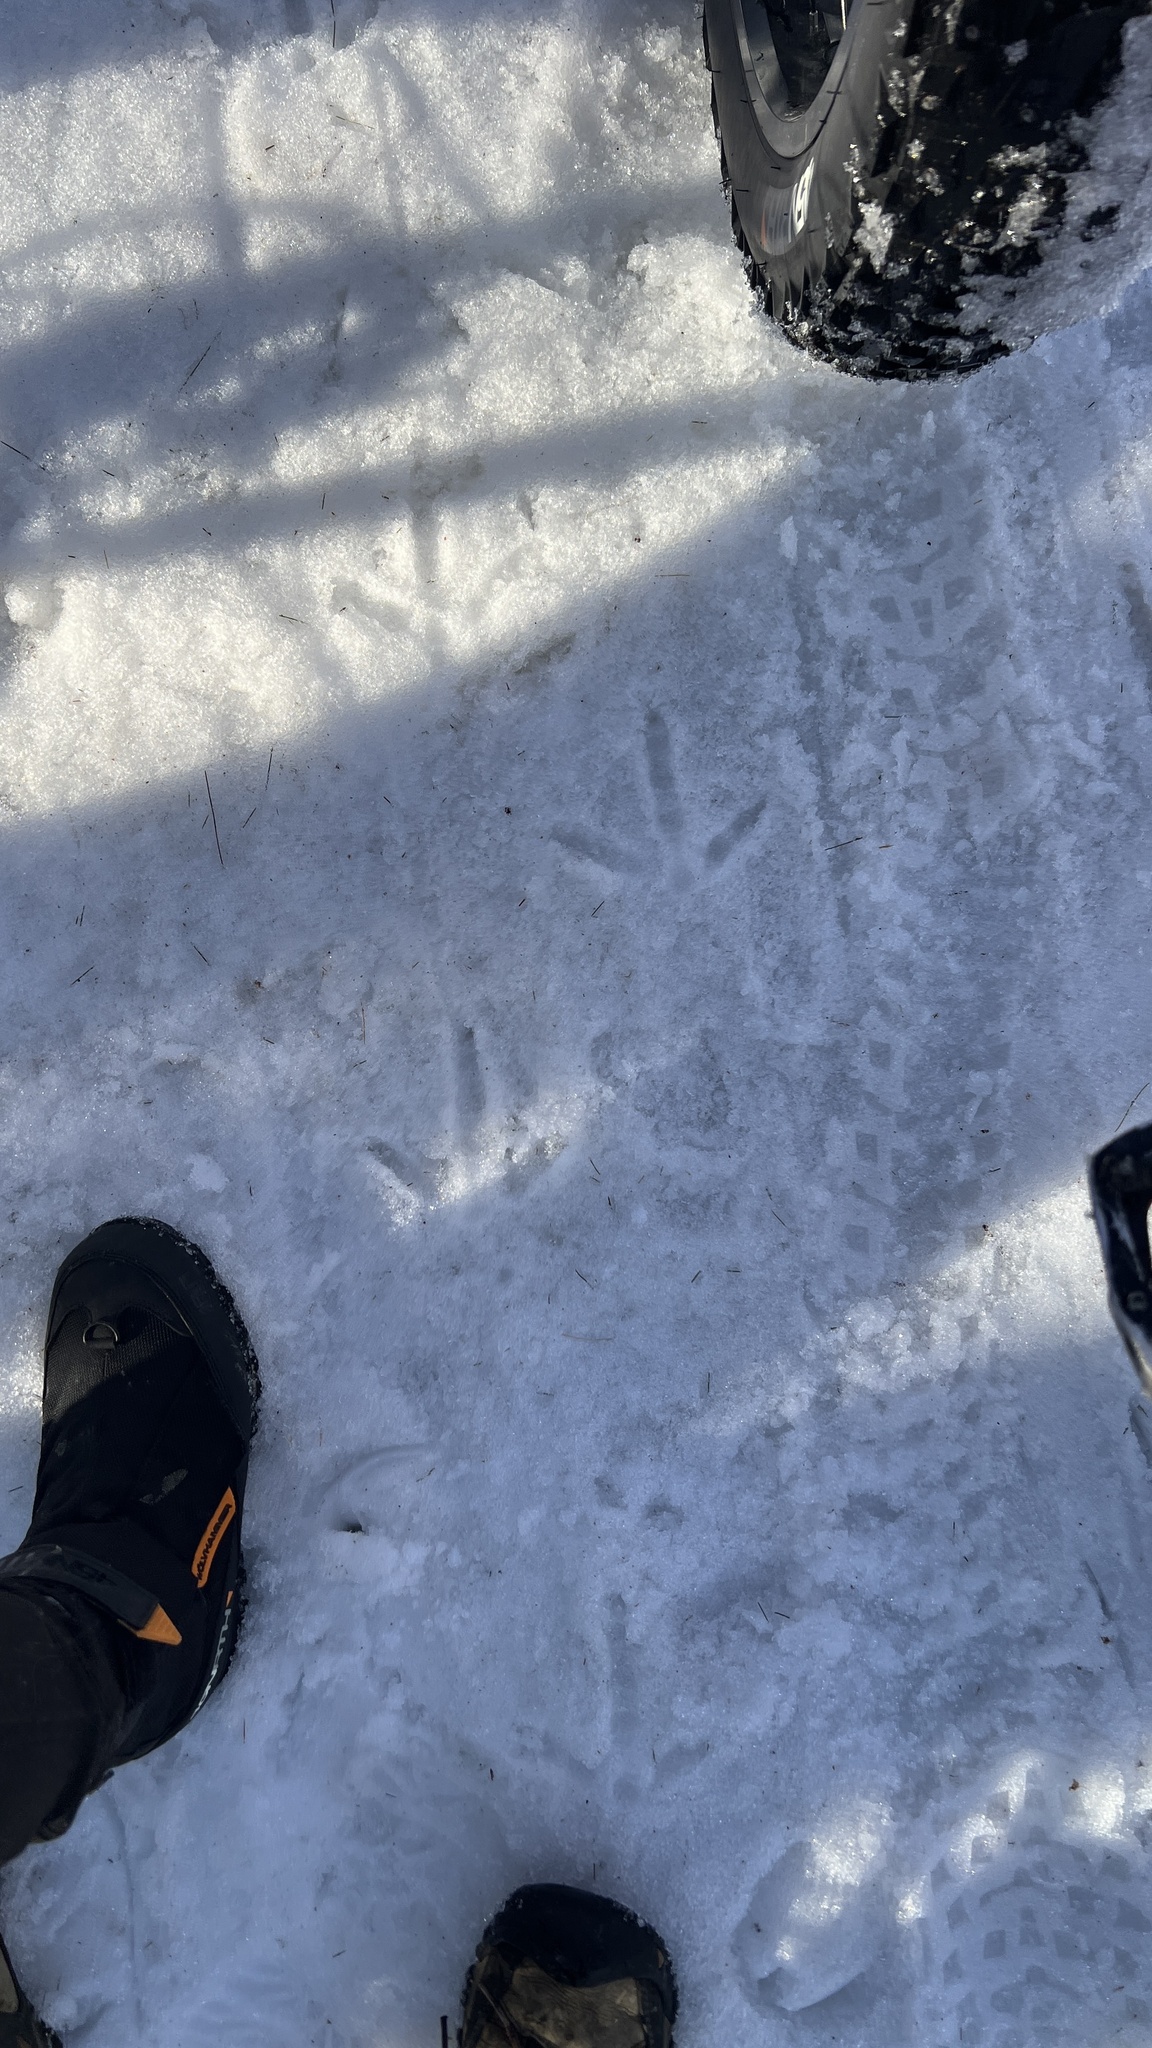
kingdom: Animalia
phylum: Chordata
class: Aves
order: Galliformes
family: Phasianidae
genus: Meleagris
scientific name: Meleagris gallopavo
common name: Wild turkey
